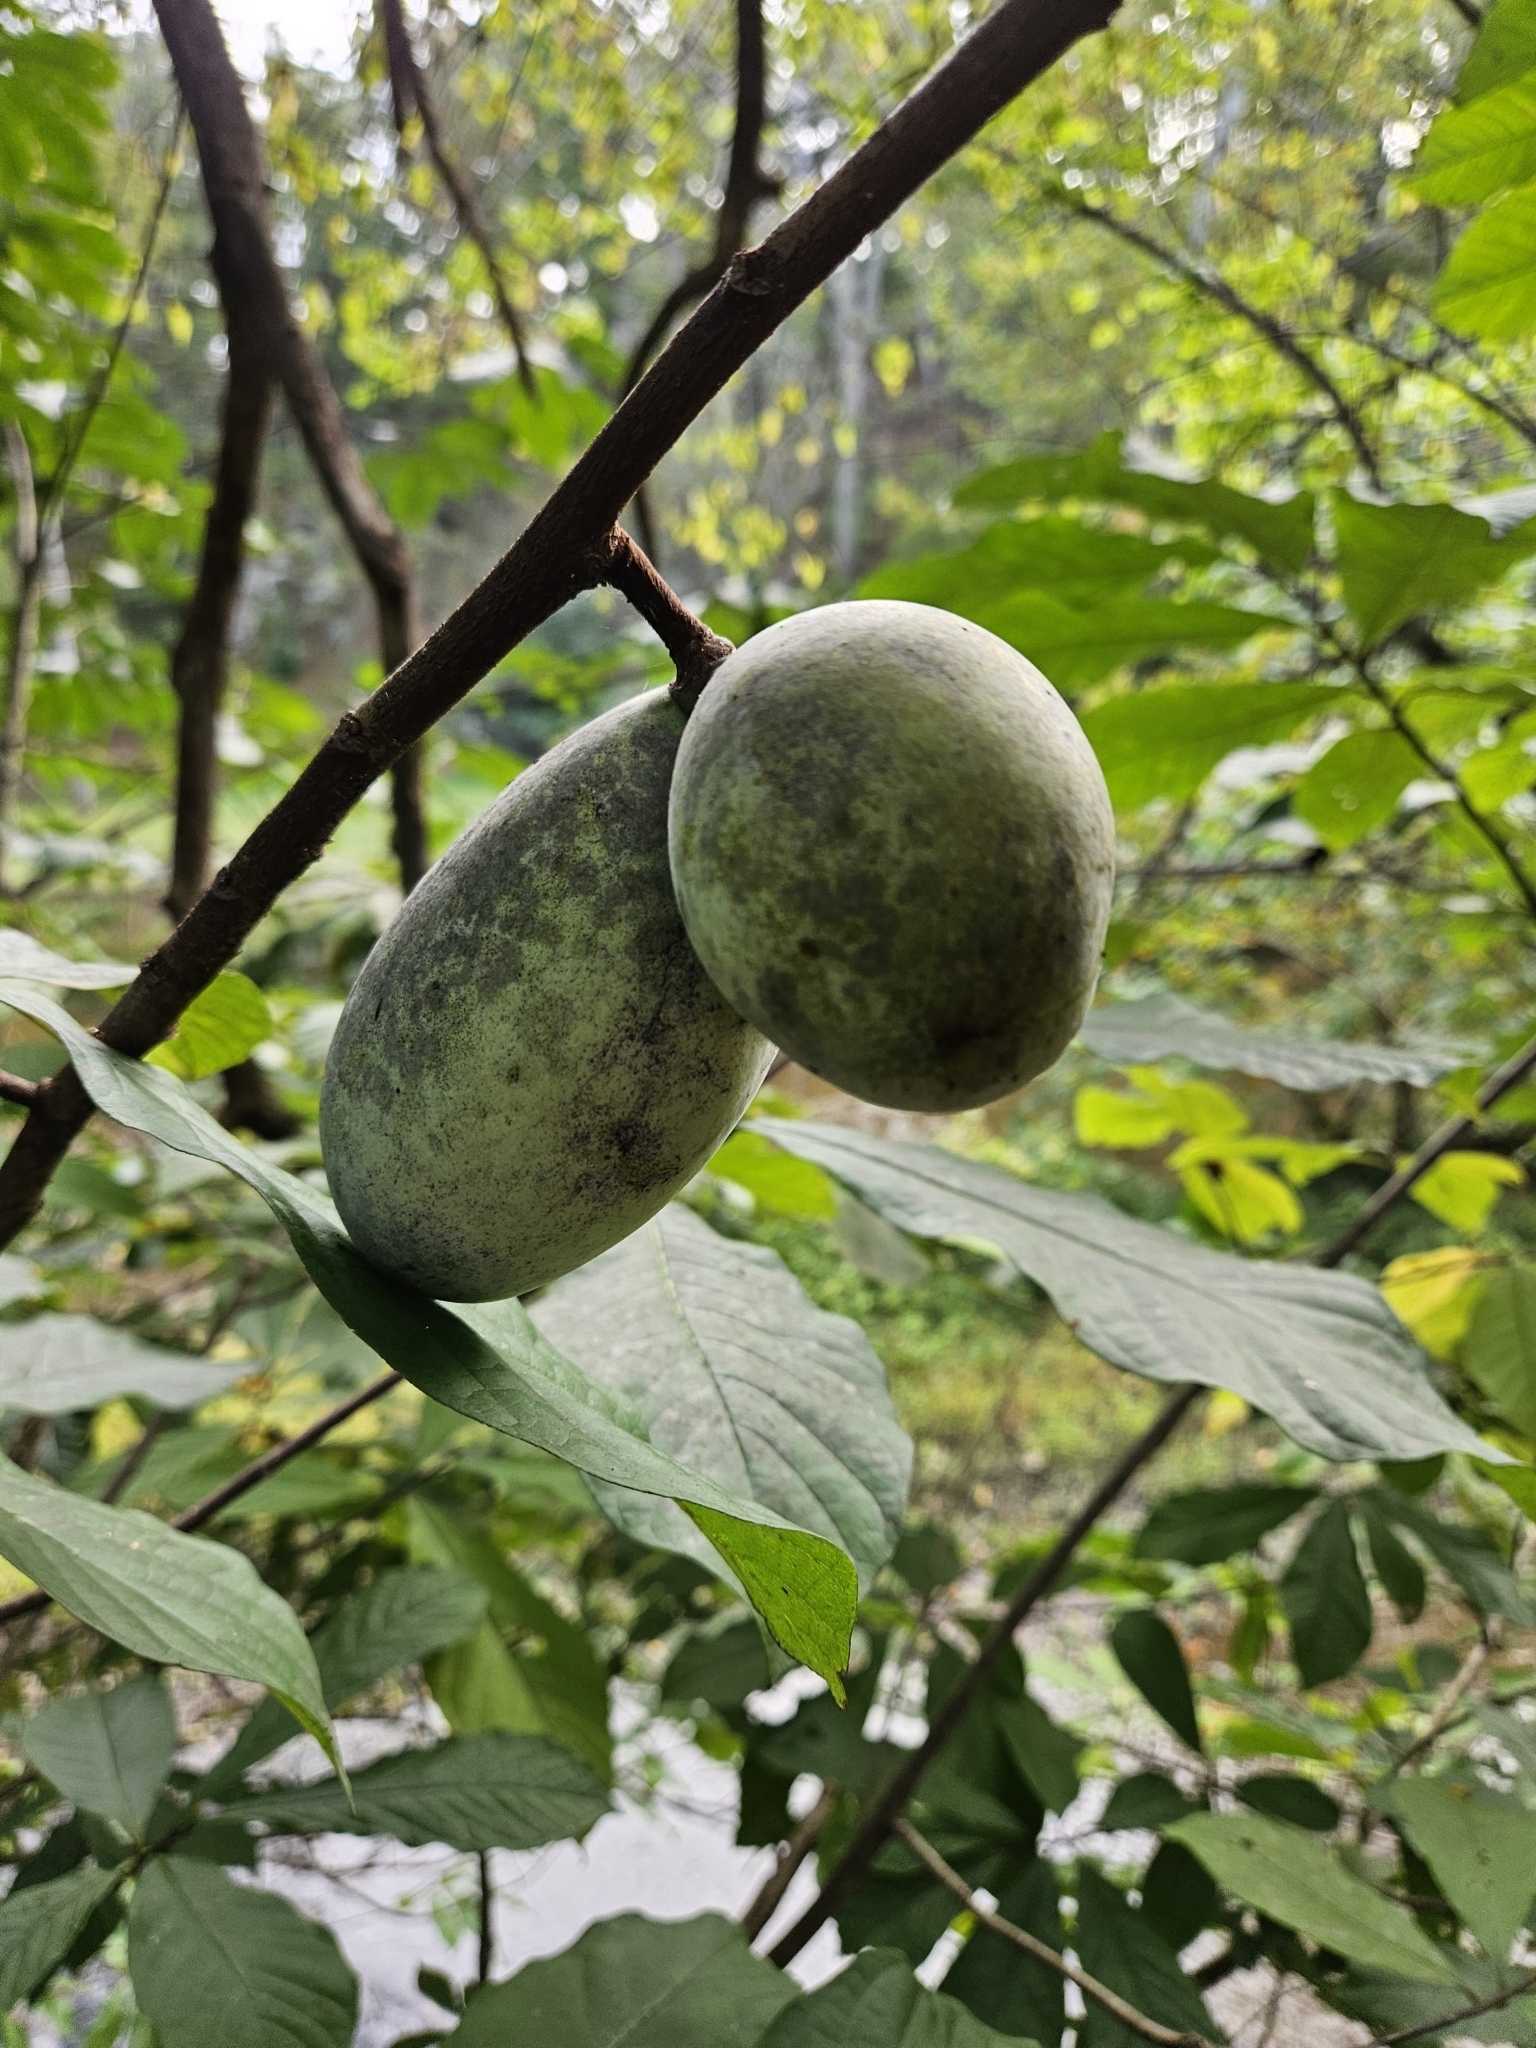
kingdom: Plantae
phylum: Tracheophyta
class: Magnoliopsida
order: Magnoliales
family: Annonaceae
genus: Asimina
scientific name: Asimina triloba
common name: Dog-banana
